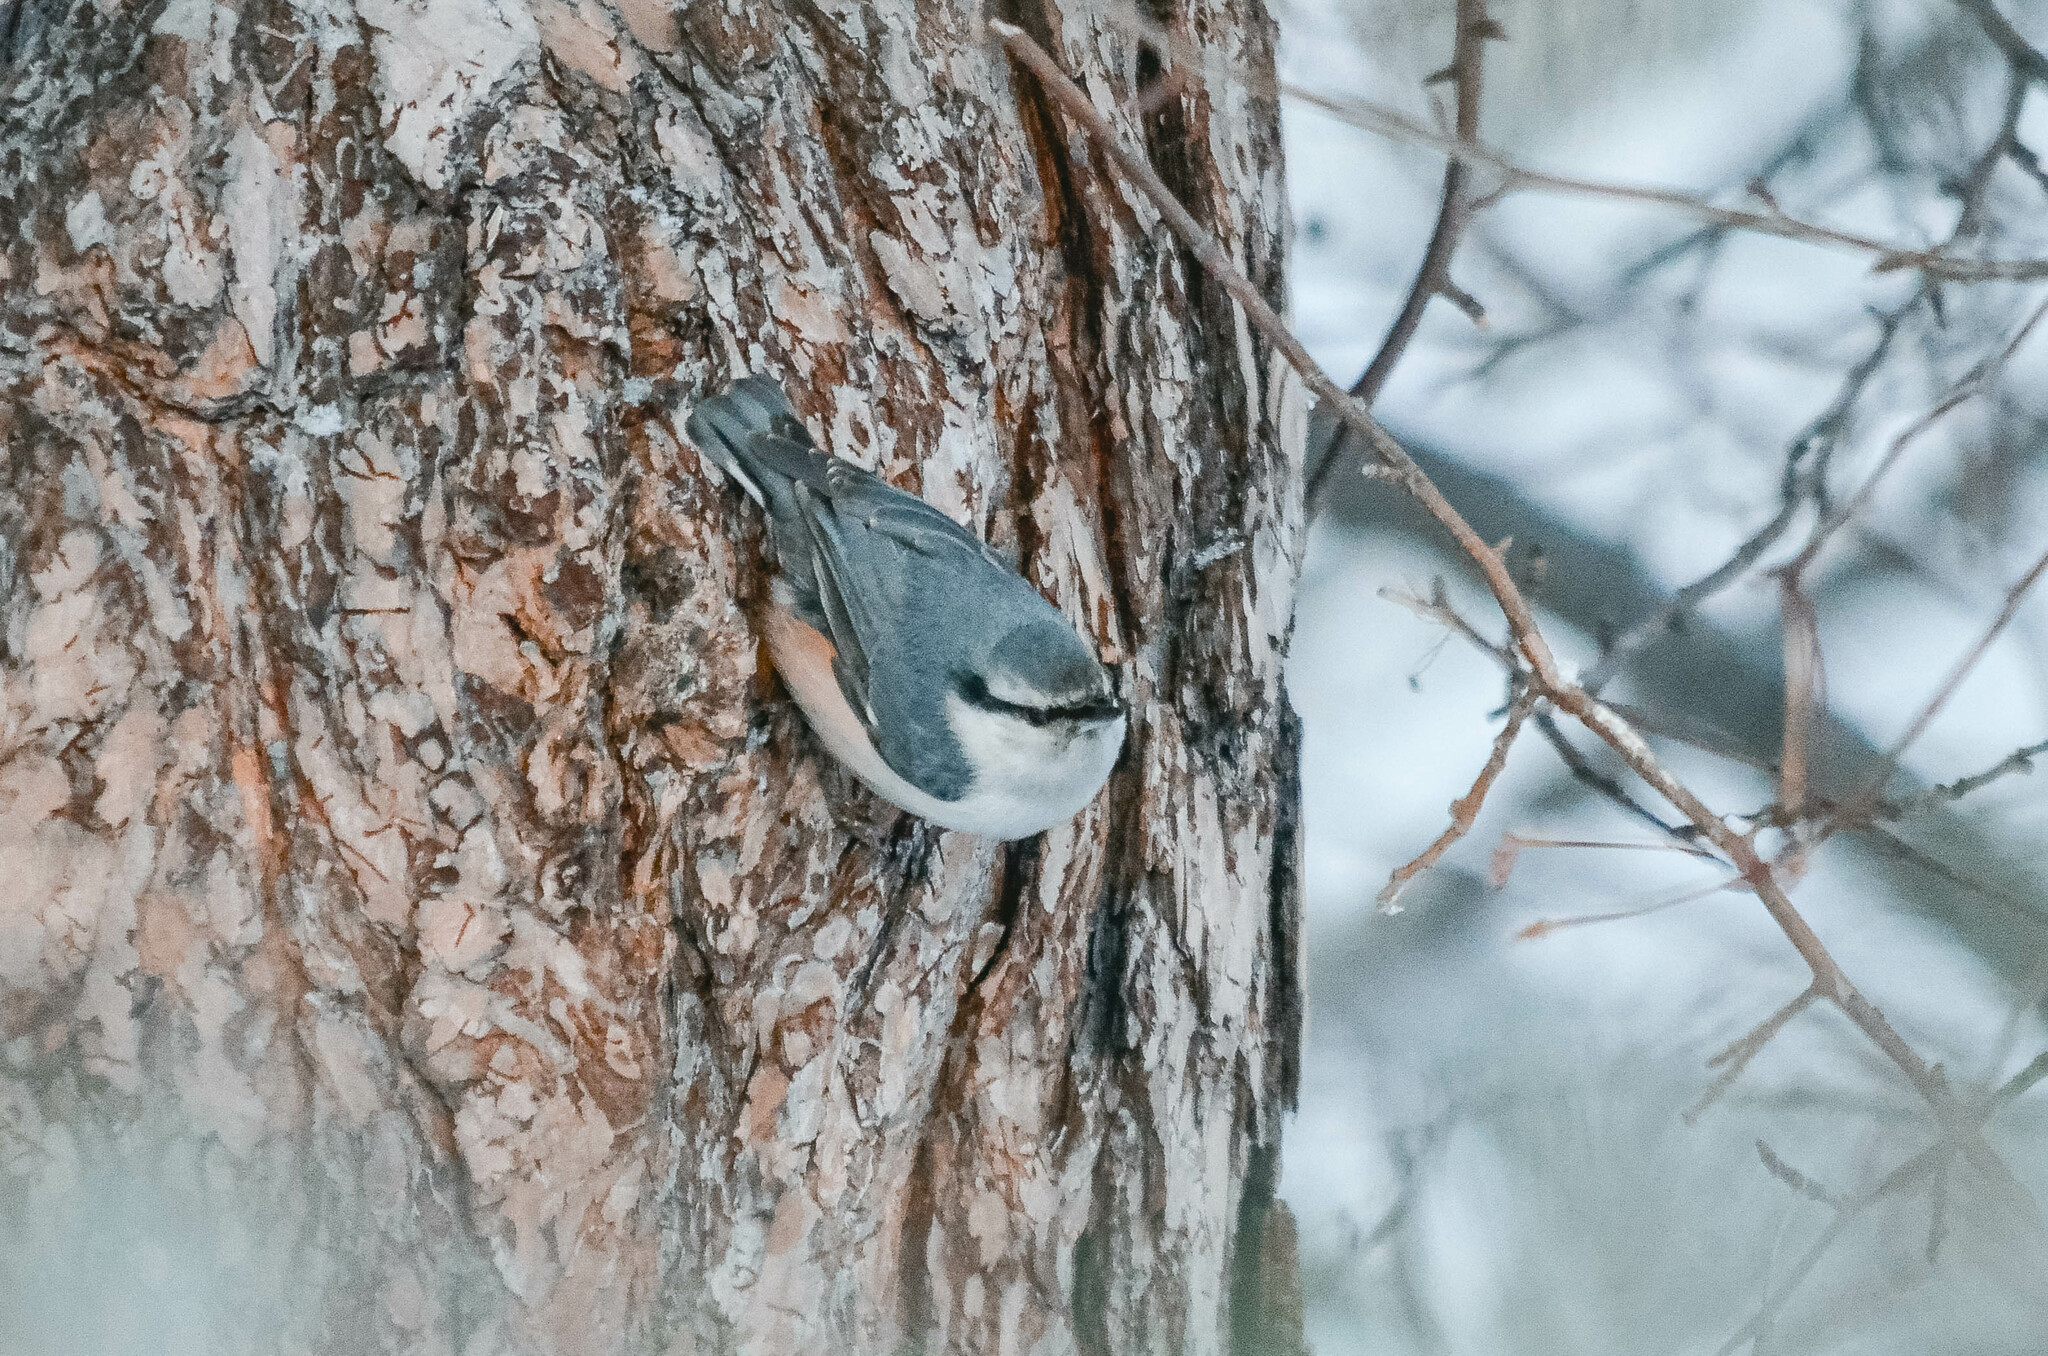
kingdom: Animalia
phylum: Chordata
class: Aves
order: Passeriformes
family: Sittidae
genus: Sitta
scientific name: Sitta europaea
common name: Eurasian nuthatch
